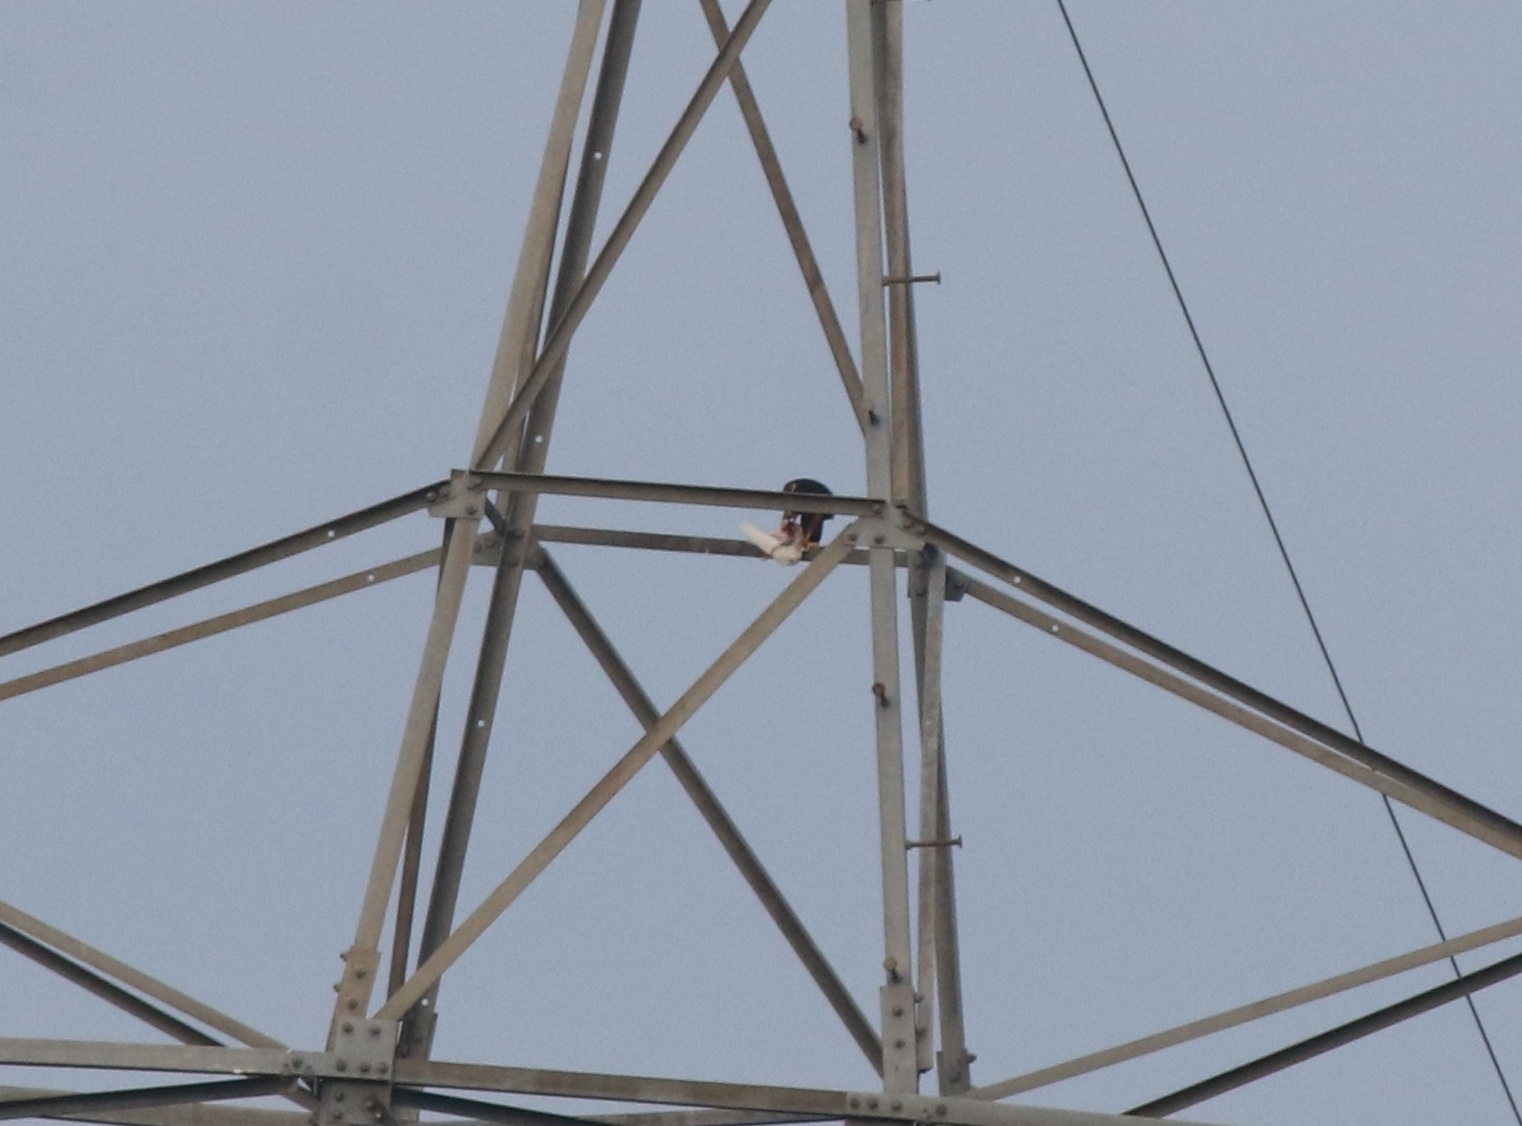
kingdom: Animalia
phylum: Chordata
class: Aves
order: Falconiformes
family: Falconidae
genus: Falco
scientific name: Falco peregrinus
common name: Peregrine falcon
